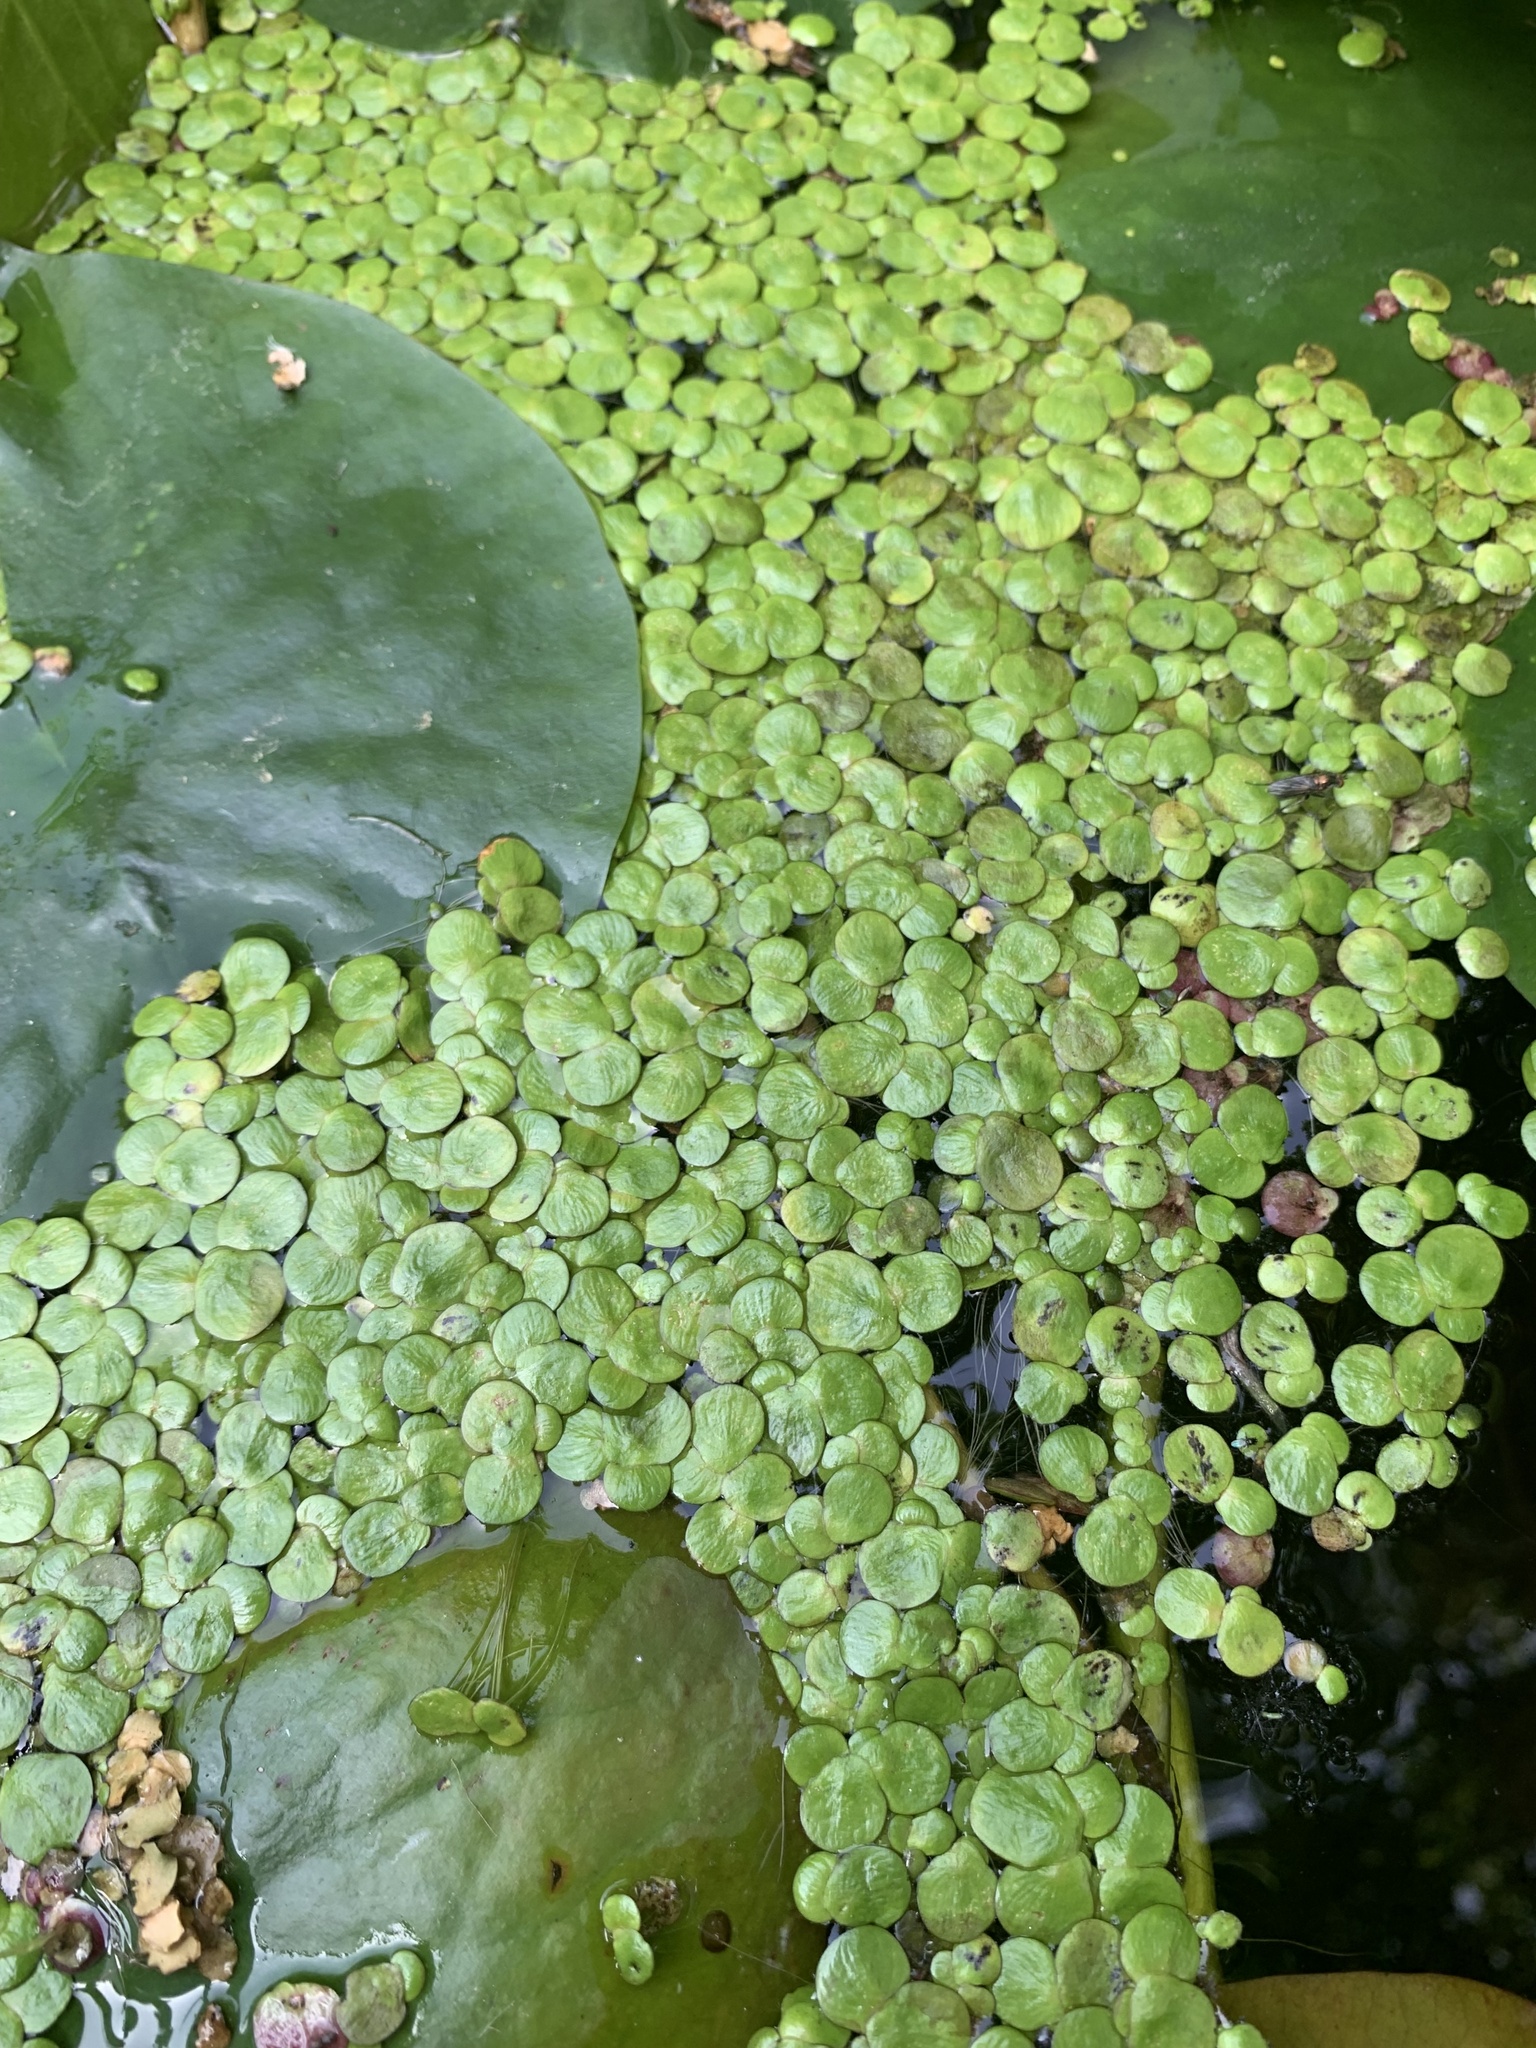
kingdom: Plantae
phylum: Tracheophyta
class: Liliopsida
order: Alismatales
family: Araceae
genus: Spirodela
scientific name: Spirodela polyrhiza
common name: Great duckweed
